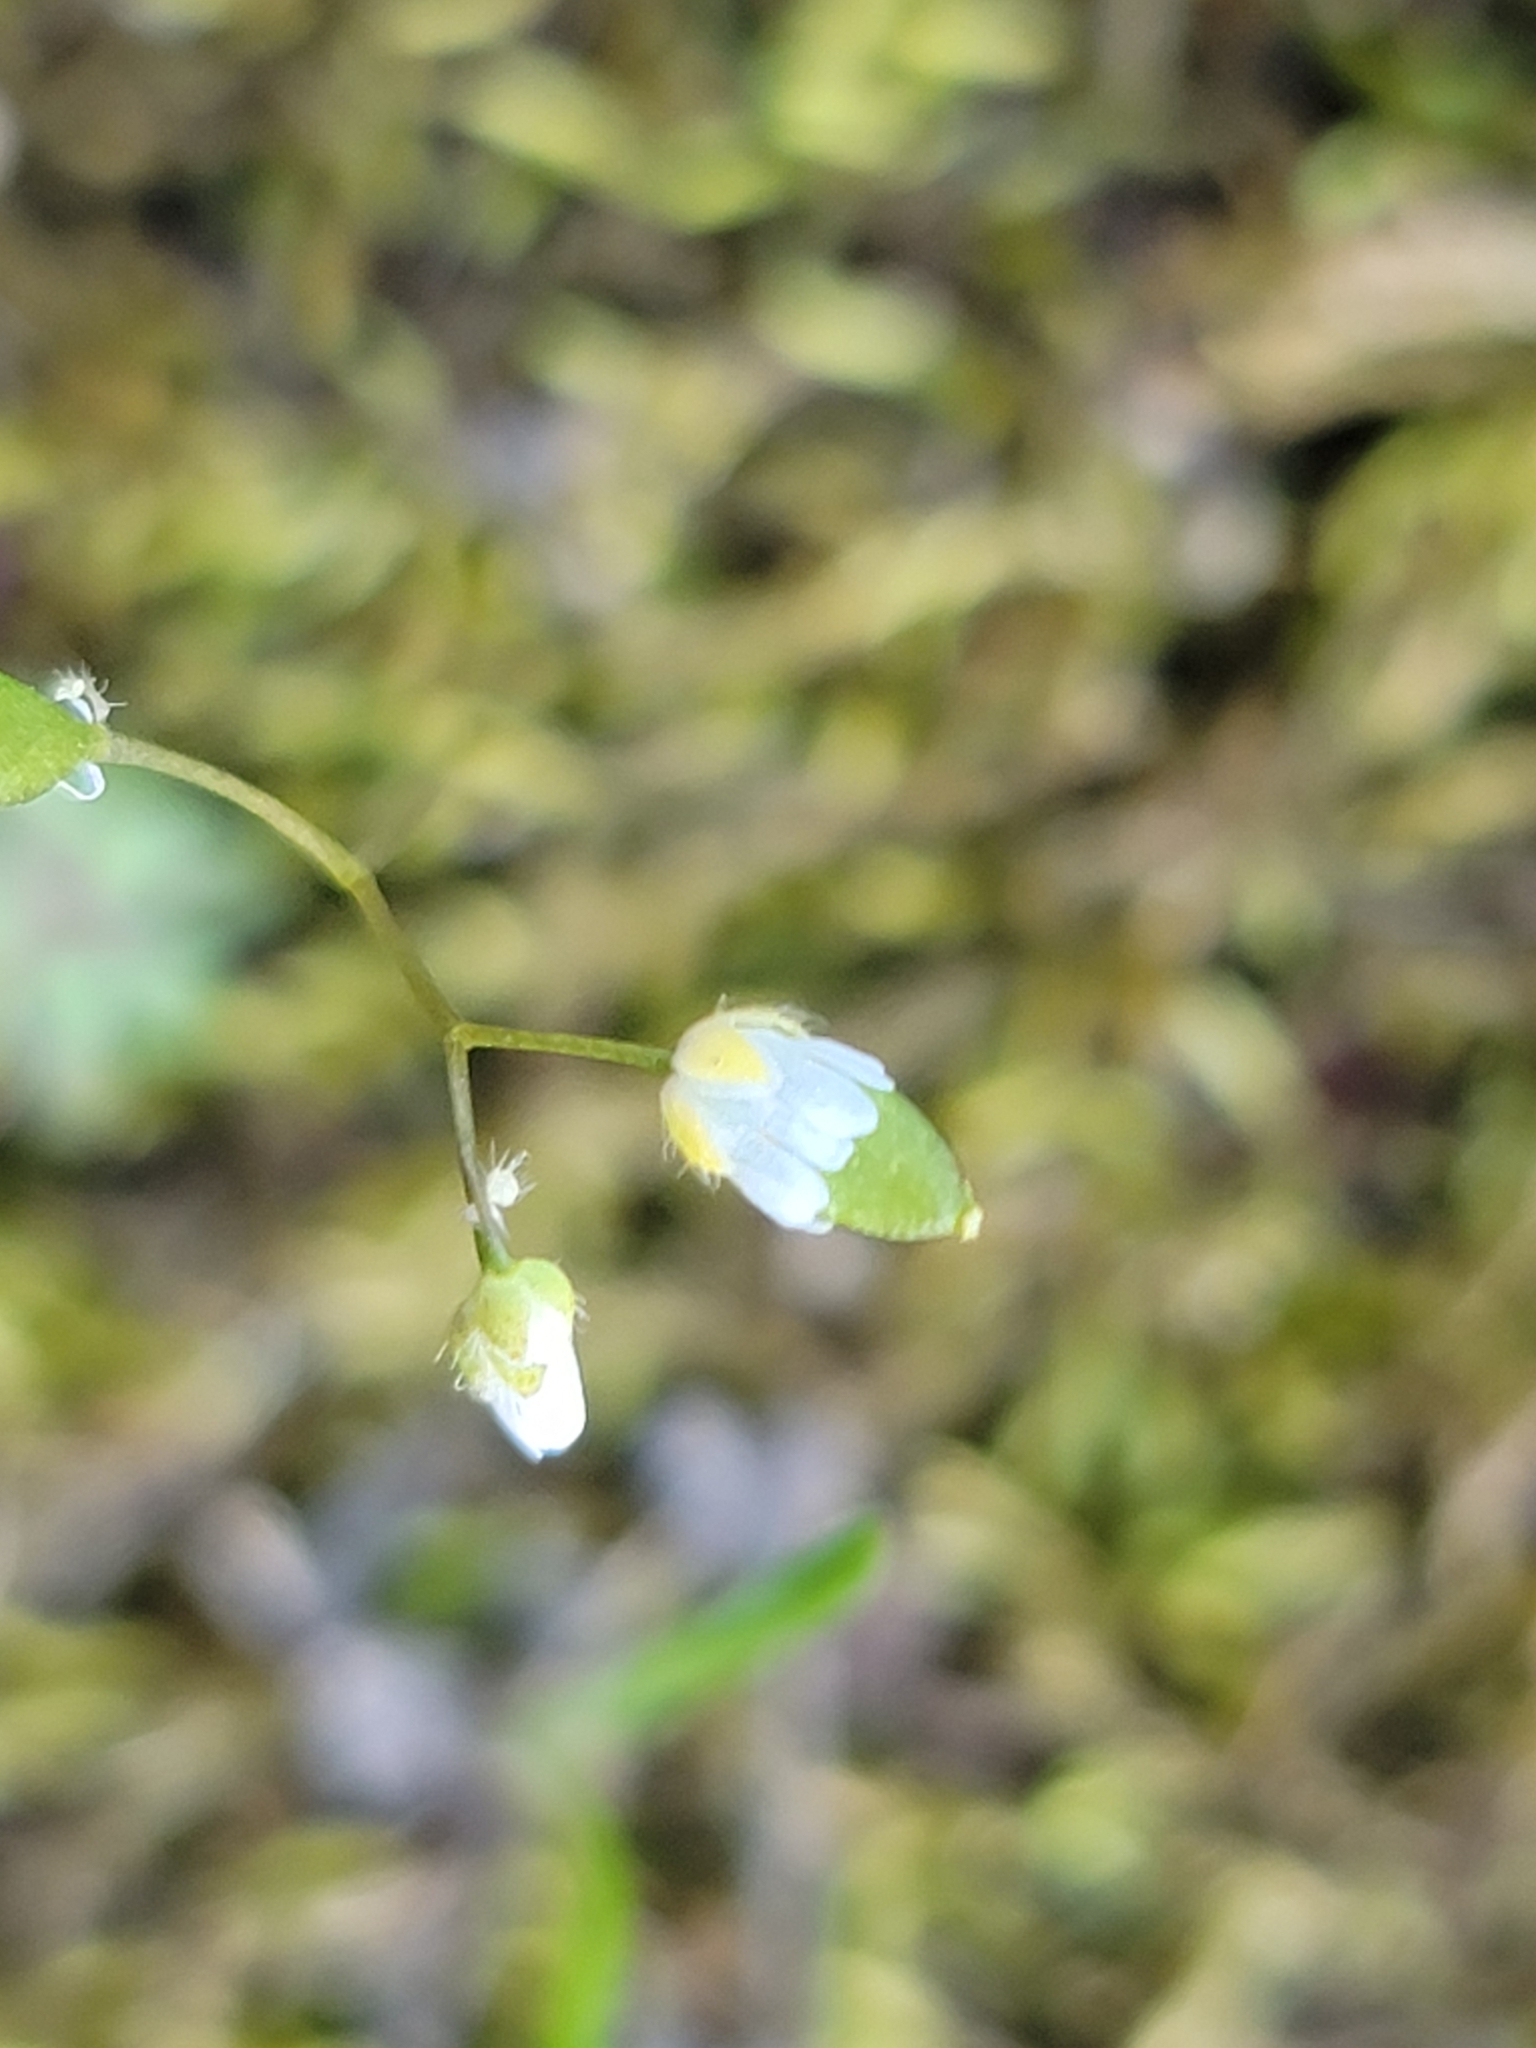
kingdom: Plantae
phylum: Tracheophyta
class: Magnoliopsida
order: Brassicales
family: Brassicaceae
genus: Draba
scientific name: Draba verna
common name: Spring draba
